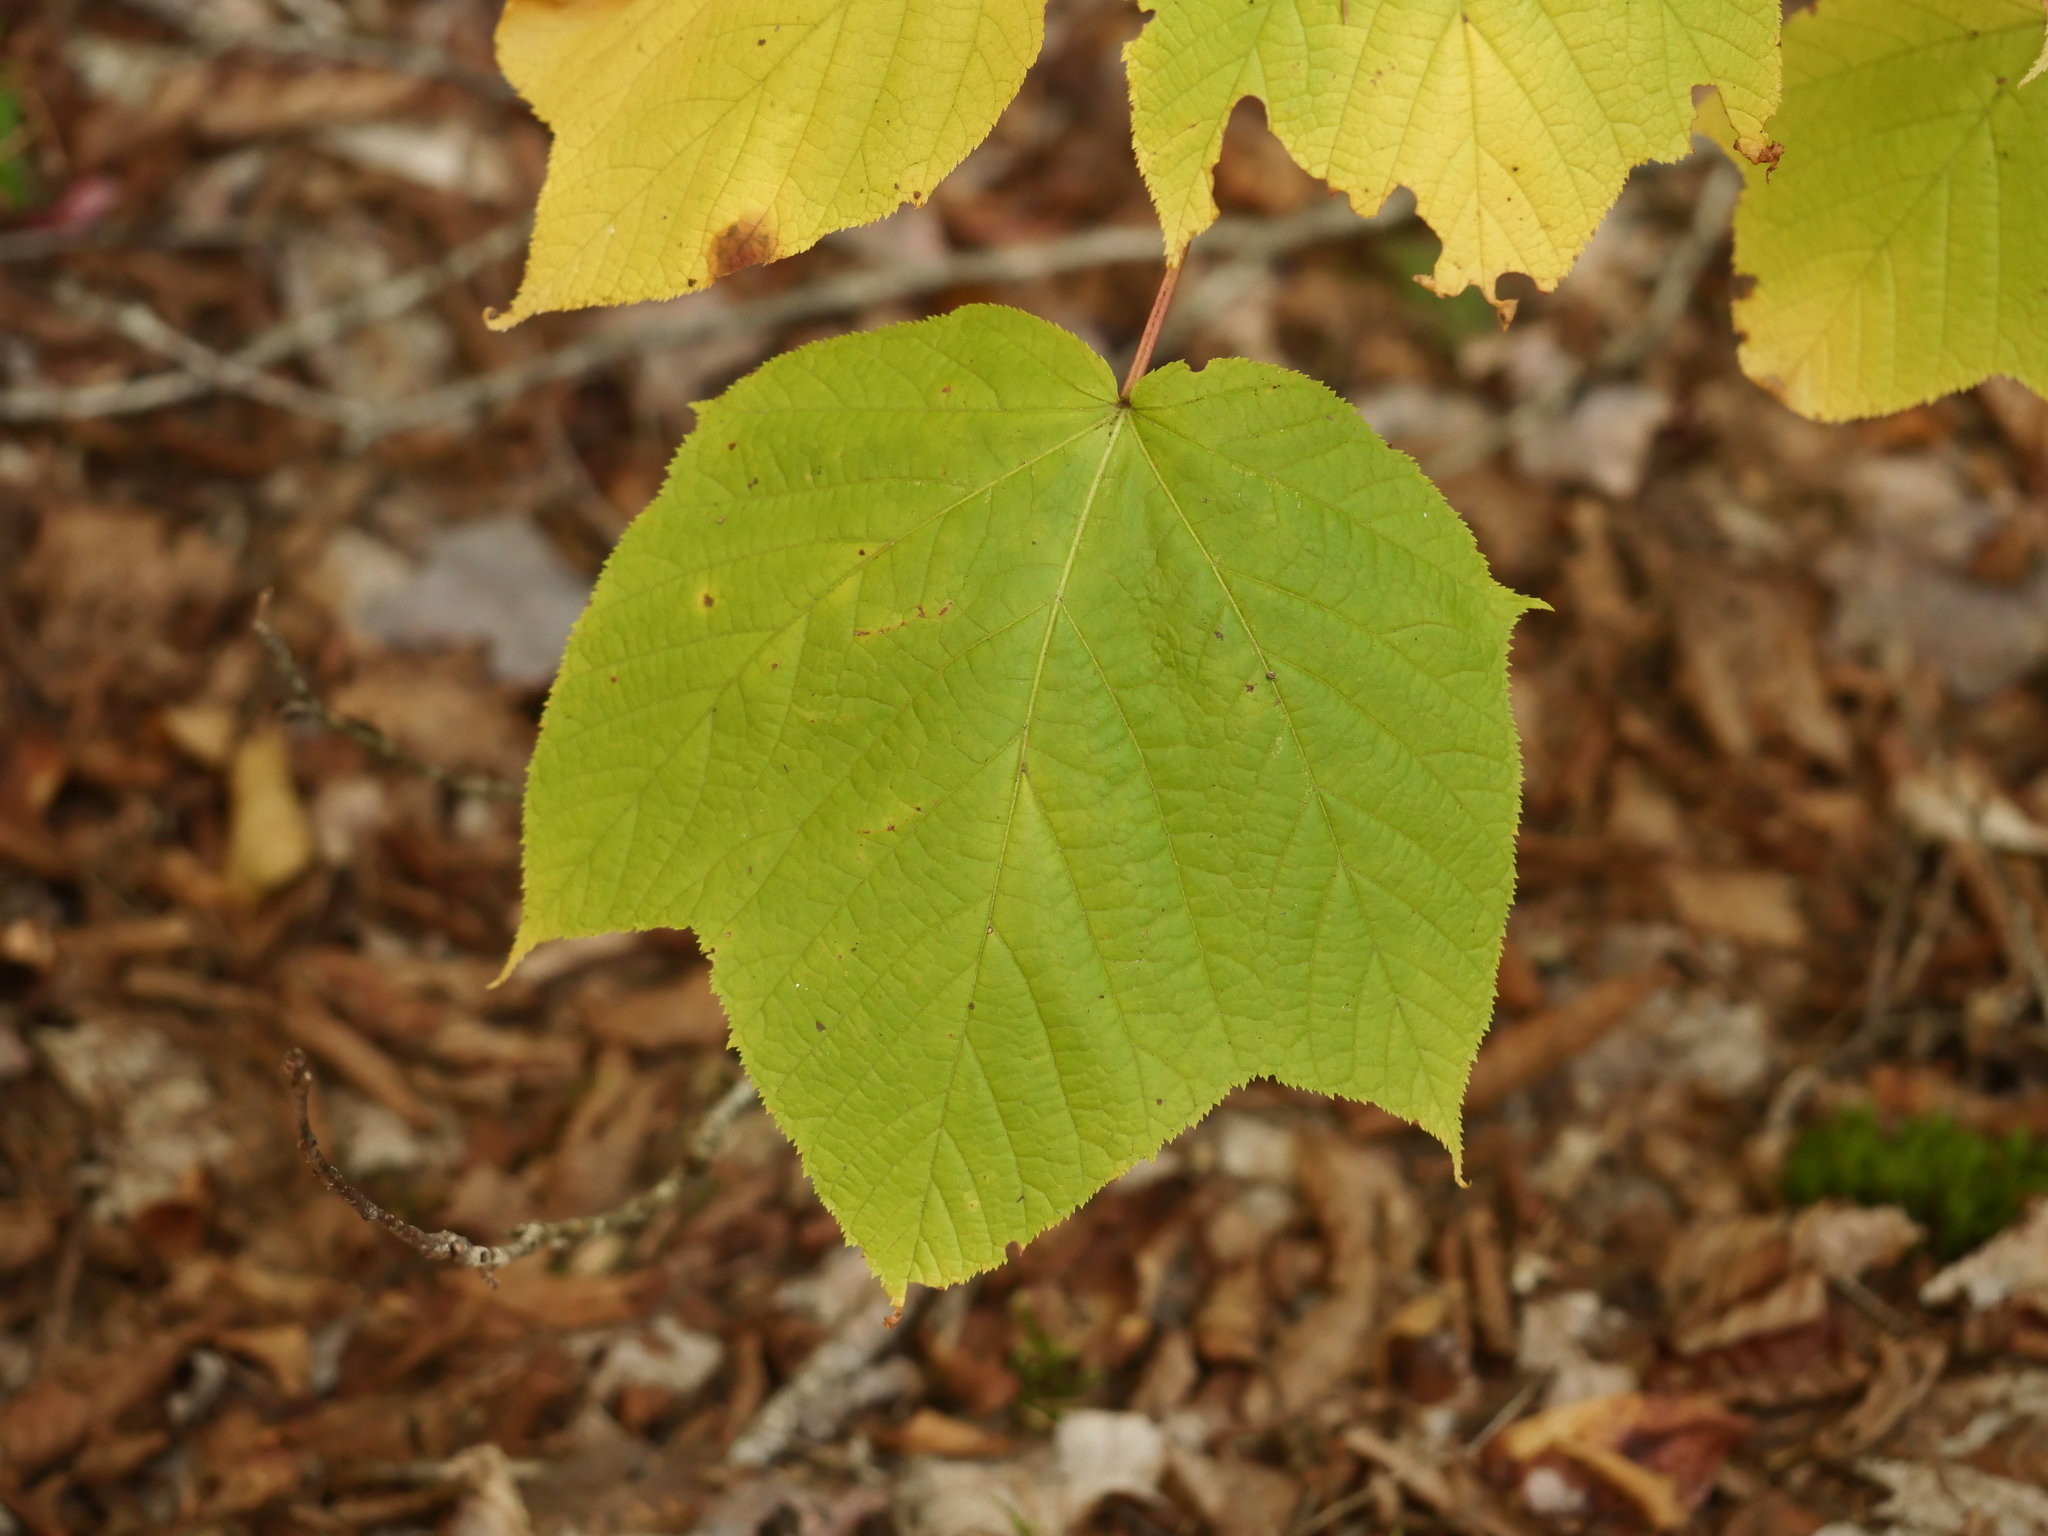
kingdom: Plantae
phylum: Tracheophyta
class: Magnoliopsida
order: Sapindales
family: Sapindaceae
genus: Acer
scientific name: Acer pensylvanicum
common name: Moosewood
